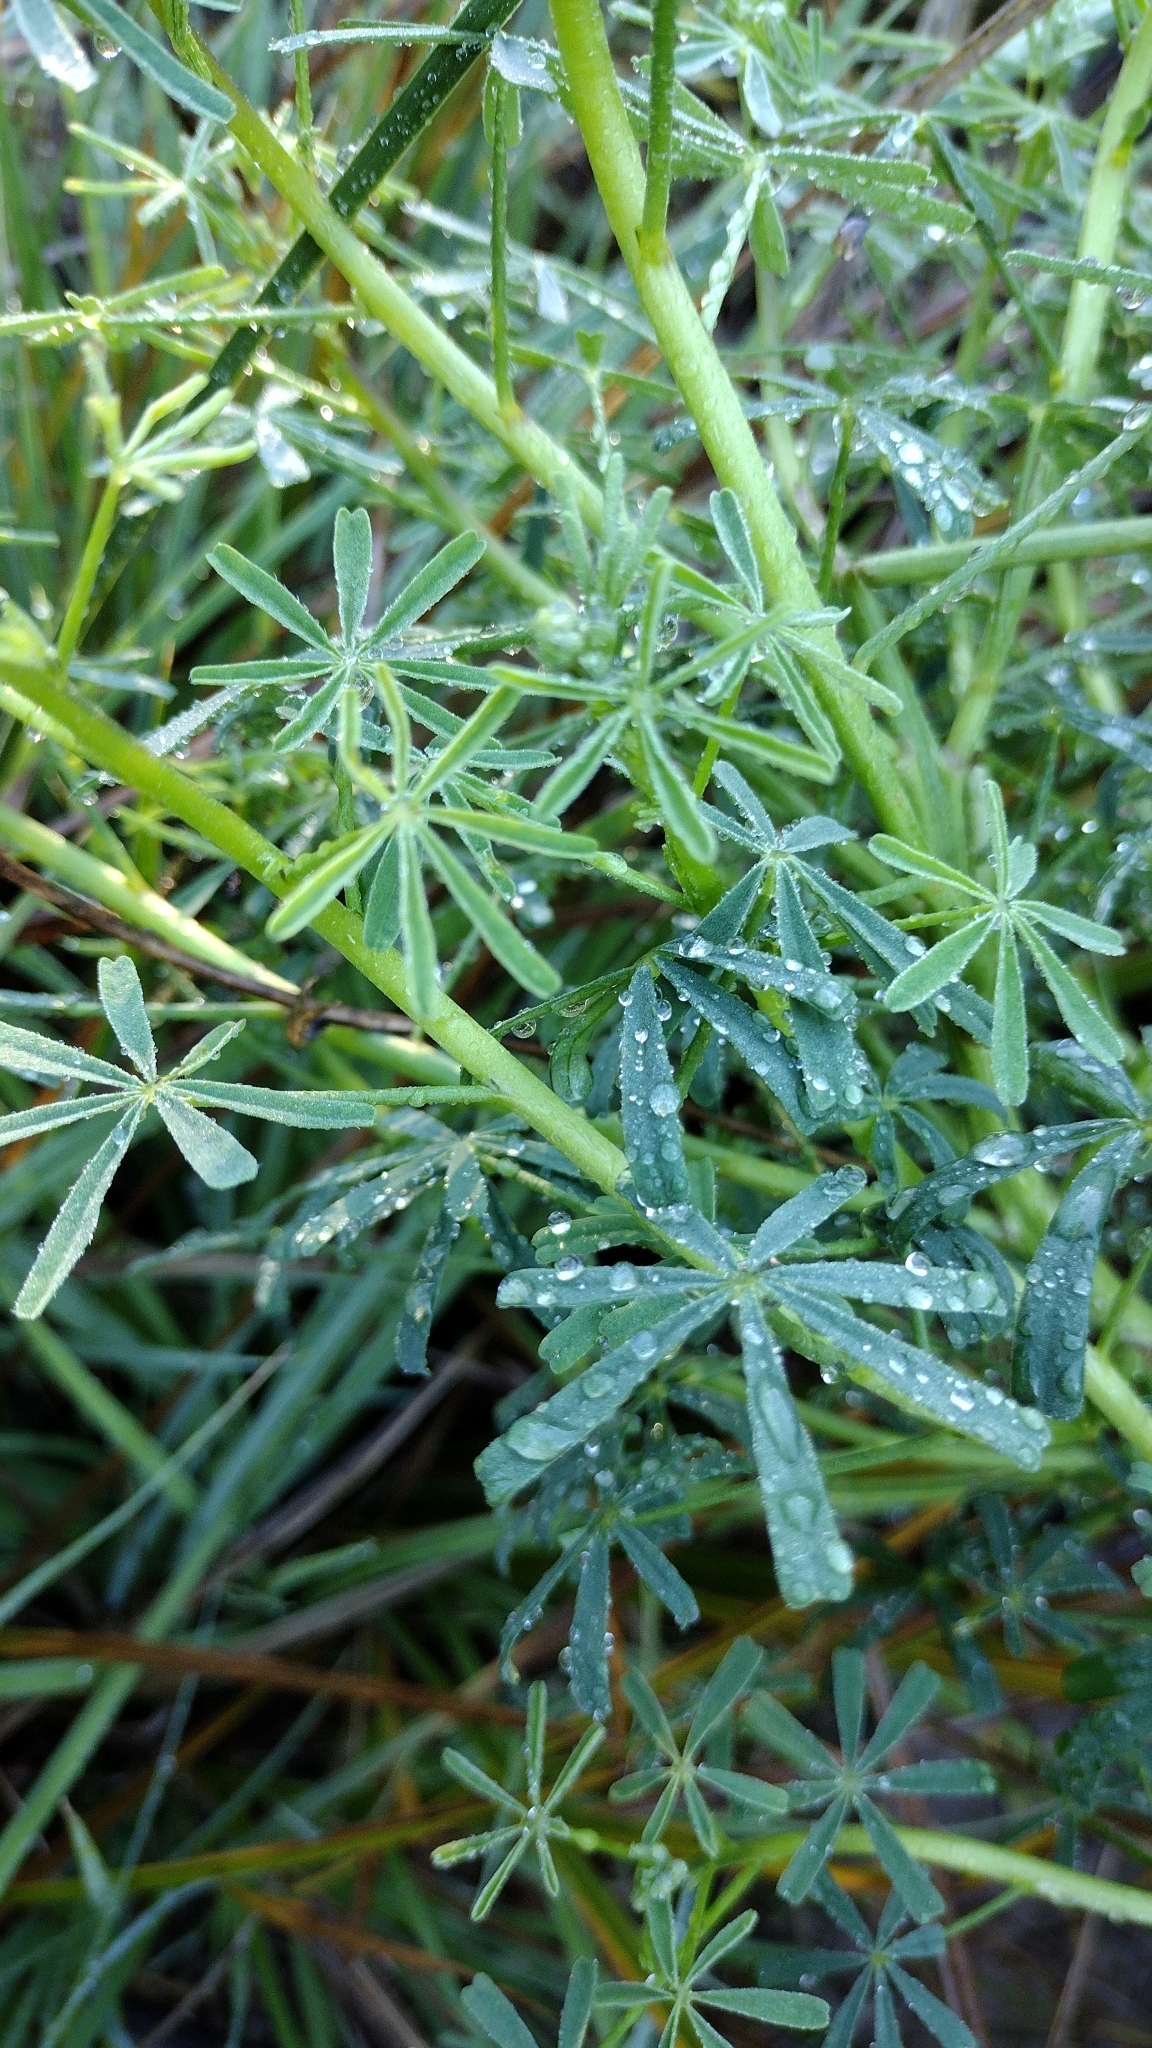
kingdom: Plantae
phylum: Tracheophyta
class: Magnoliopsida
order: Fabales
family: Fabaceae
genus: Lupinus
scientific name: Lupinus truncatus
